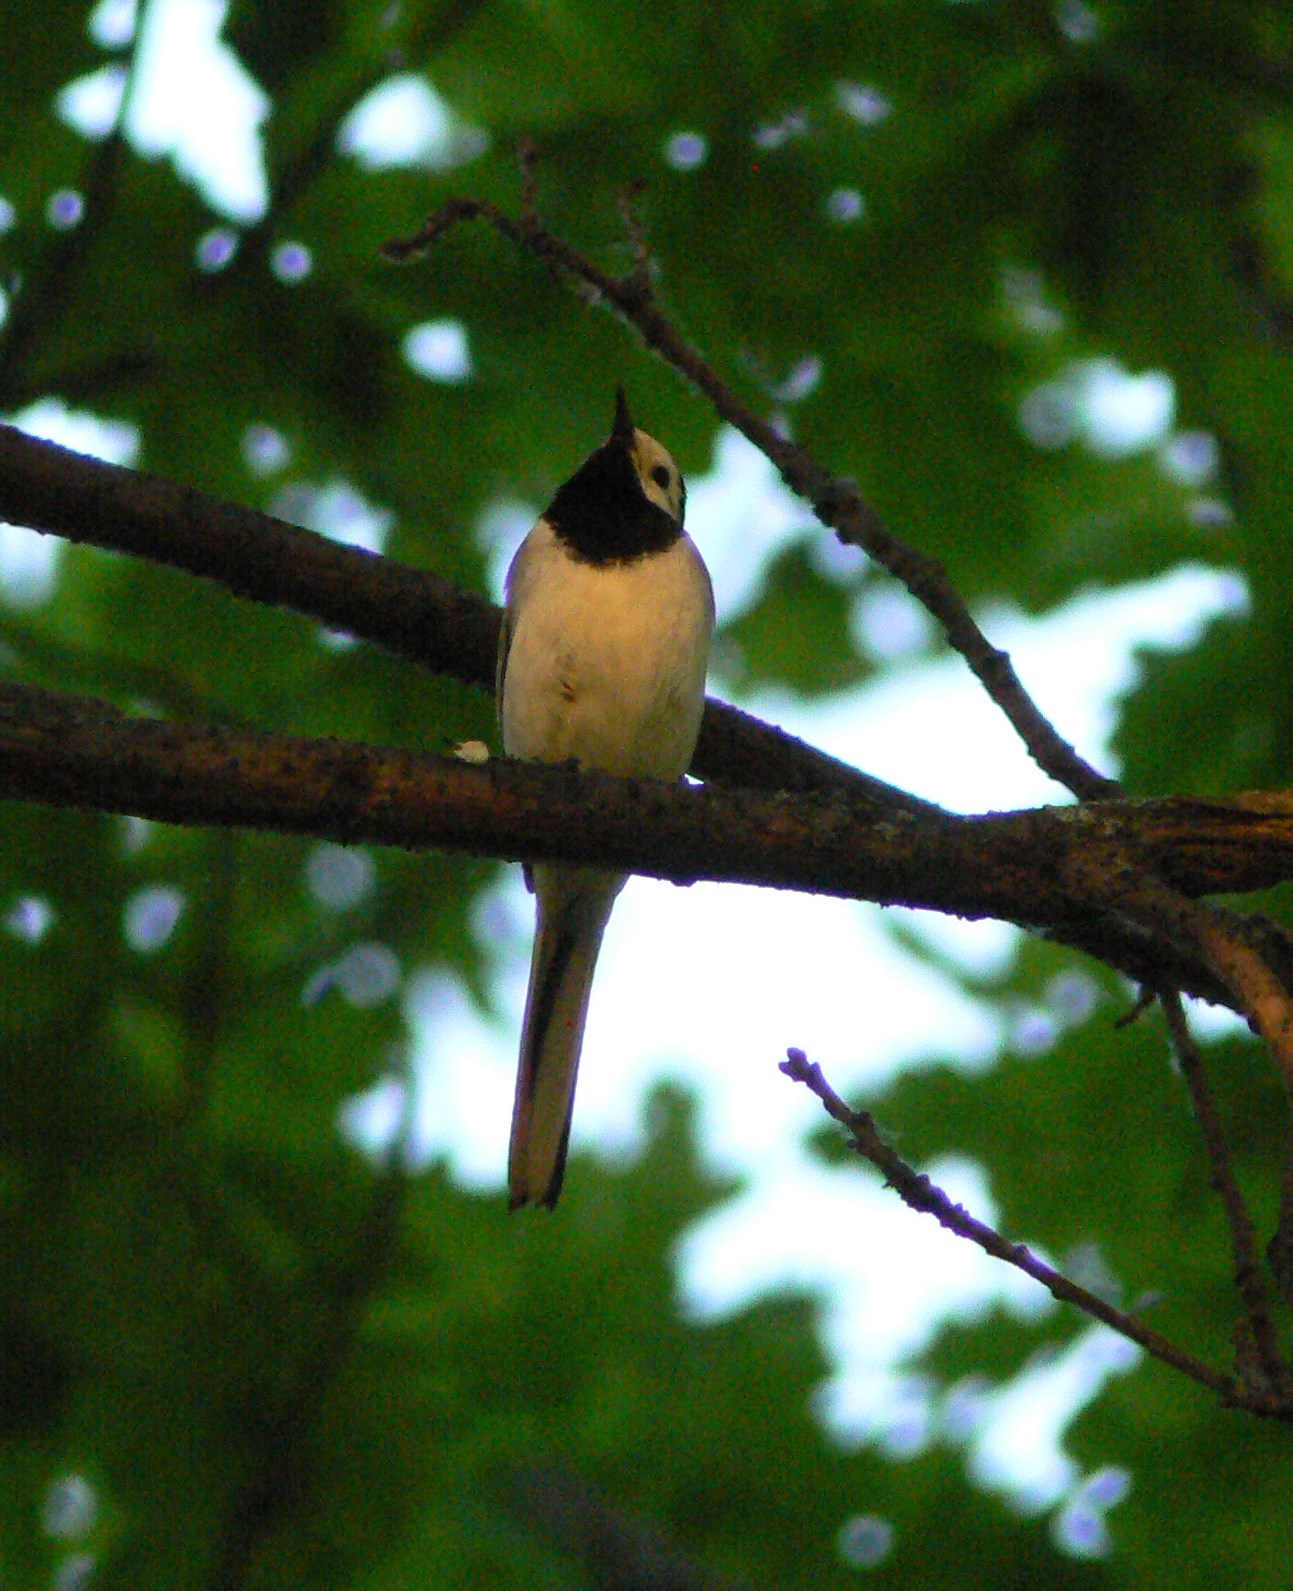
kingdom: Animalia
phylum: Chordata
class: Aves
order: Passeriformes
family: Motacillidae
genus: Motacilla
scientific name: Motacilla alba
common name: White wagtail
